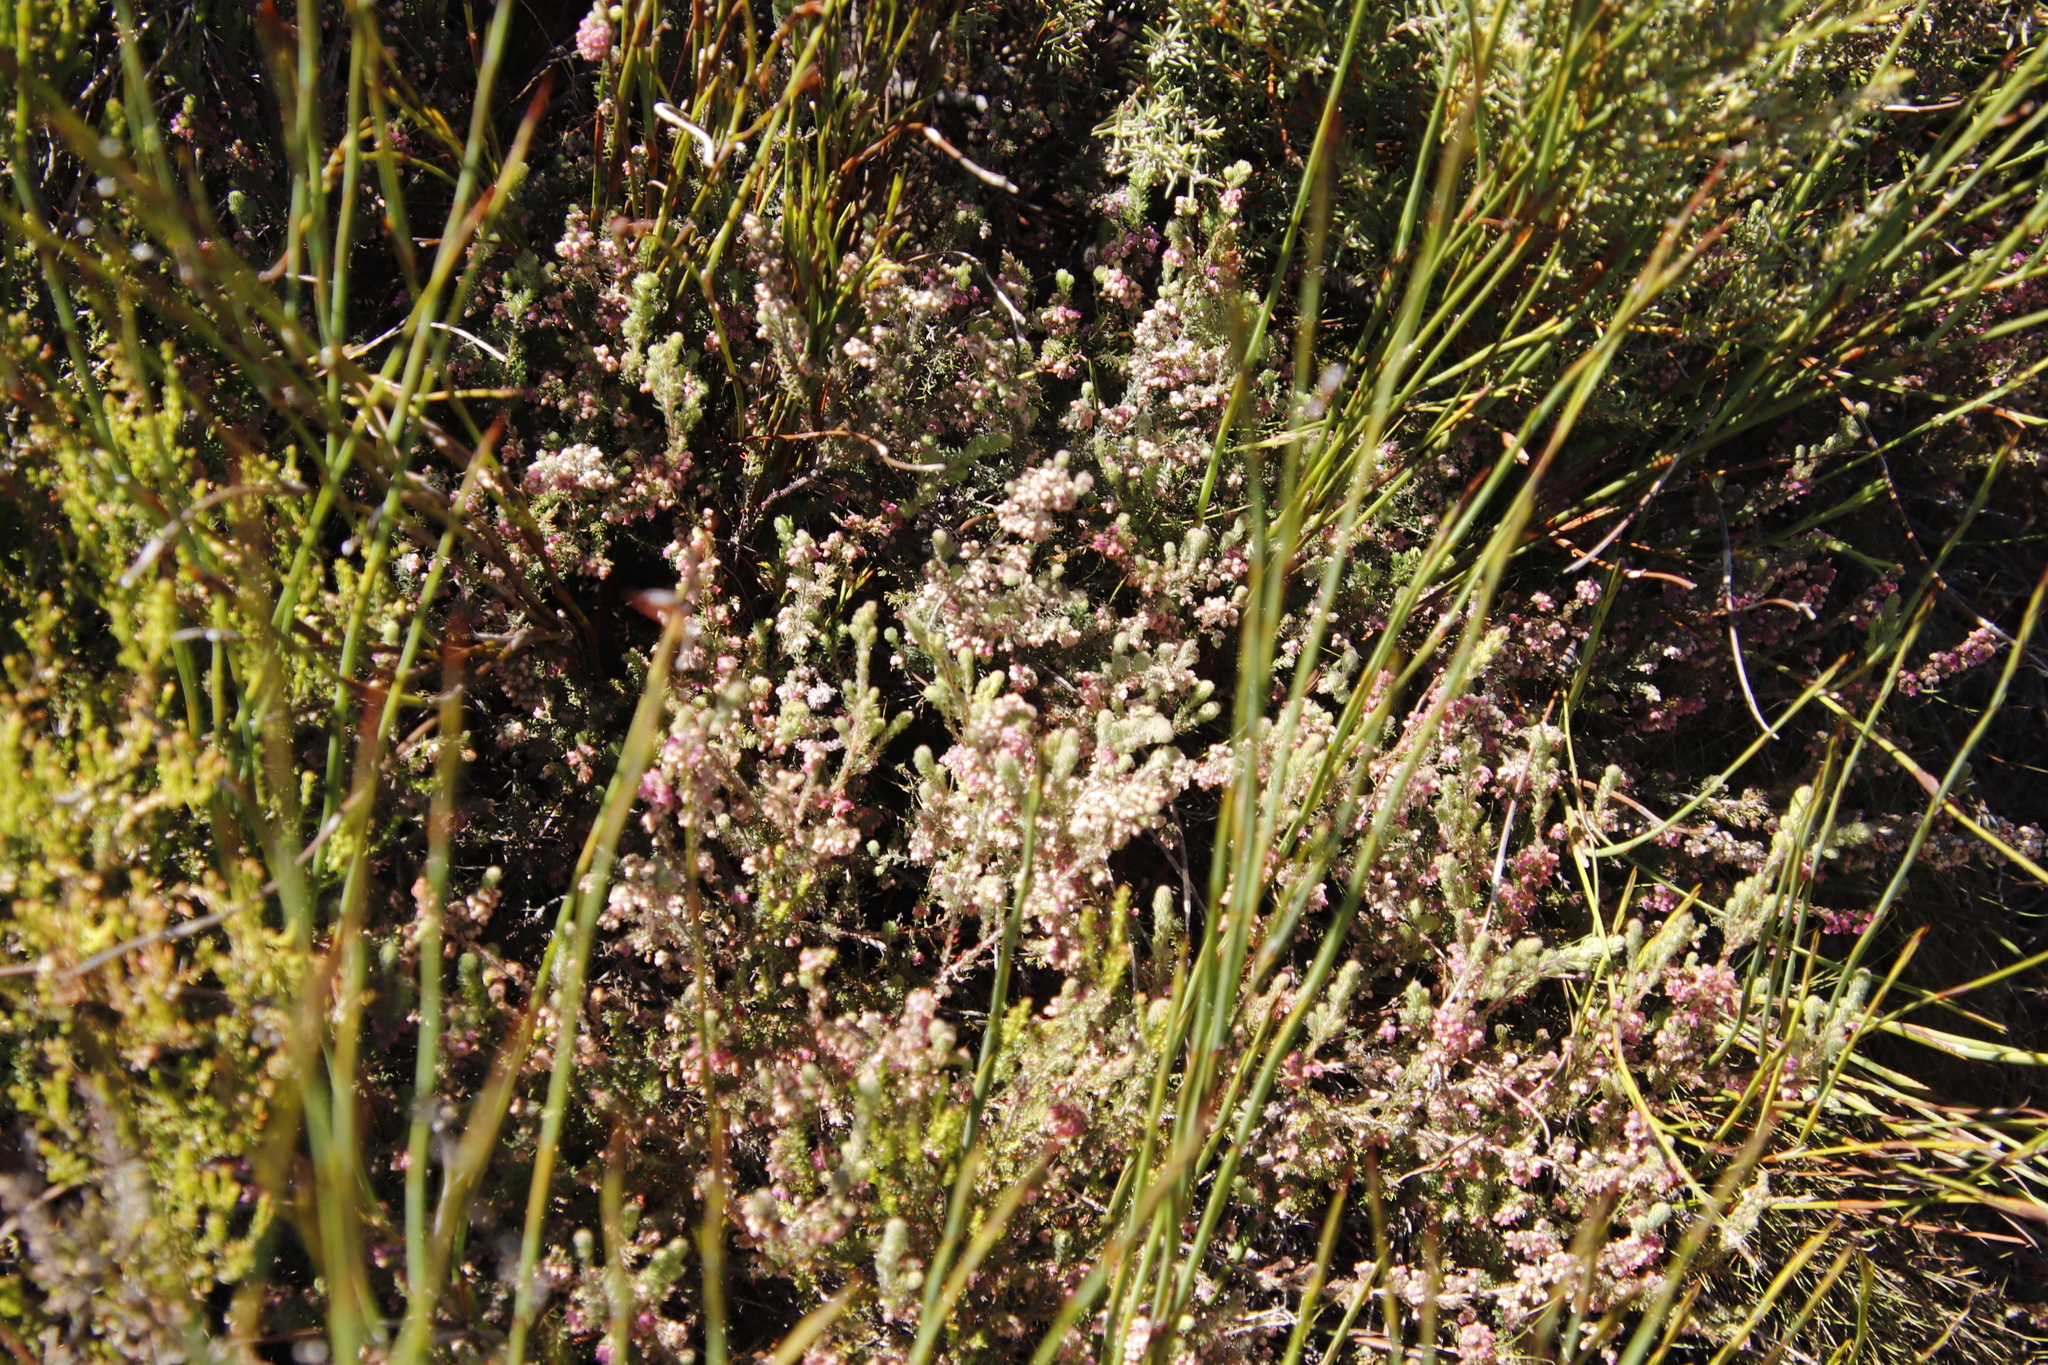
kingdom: Plantae
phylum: Tracheophyta
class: Magnoliopsida
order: Ericales
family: Ericaceae
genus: Erica
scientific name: Erica mollis
